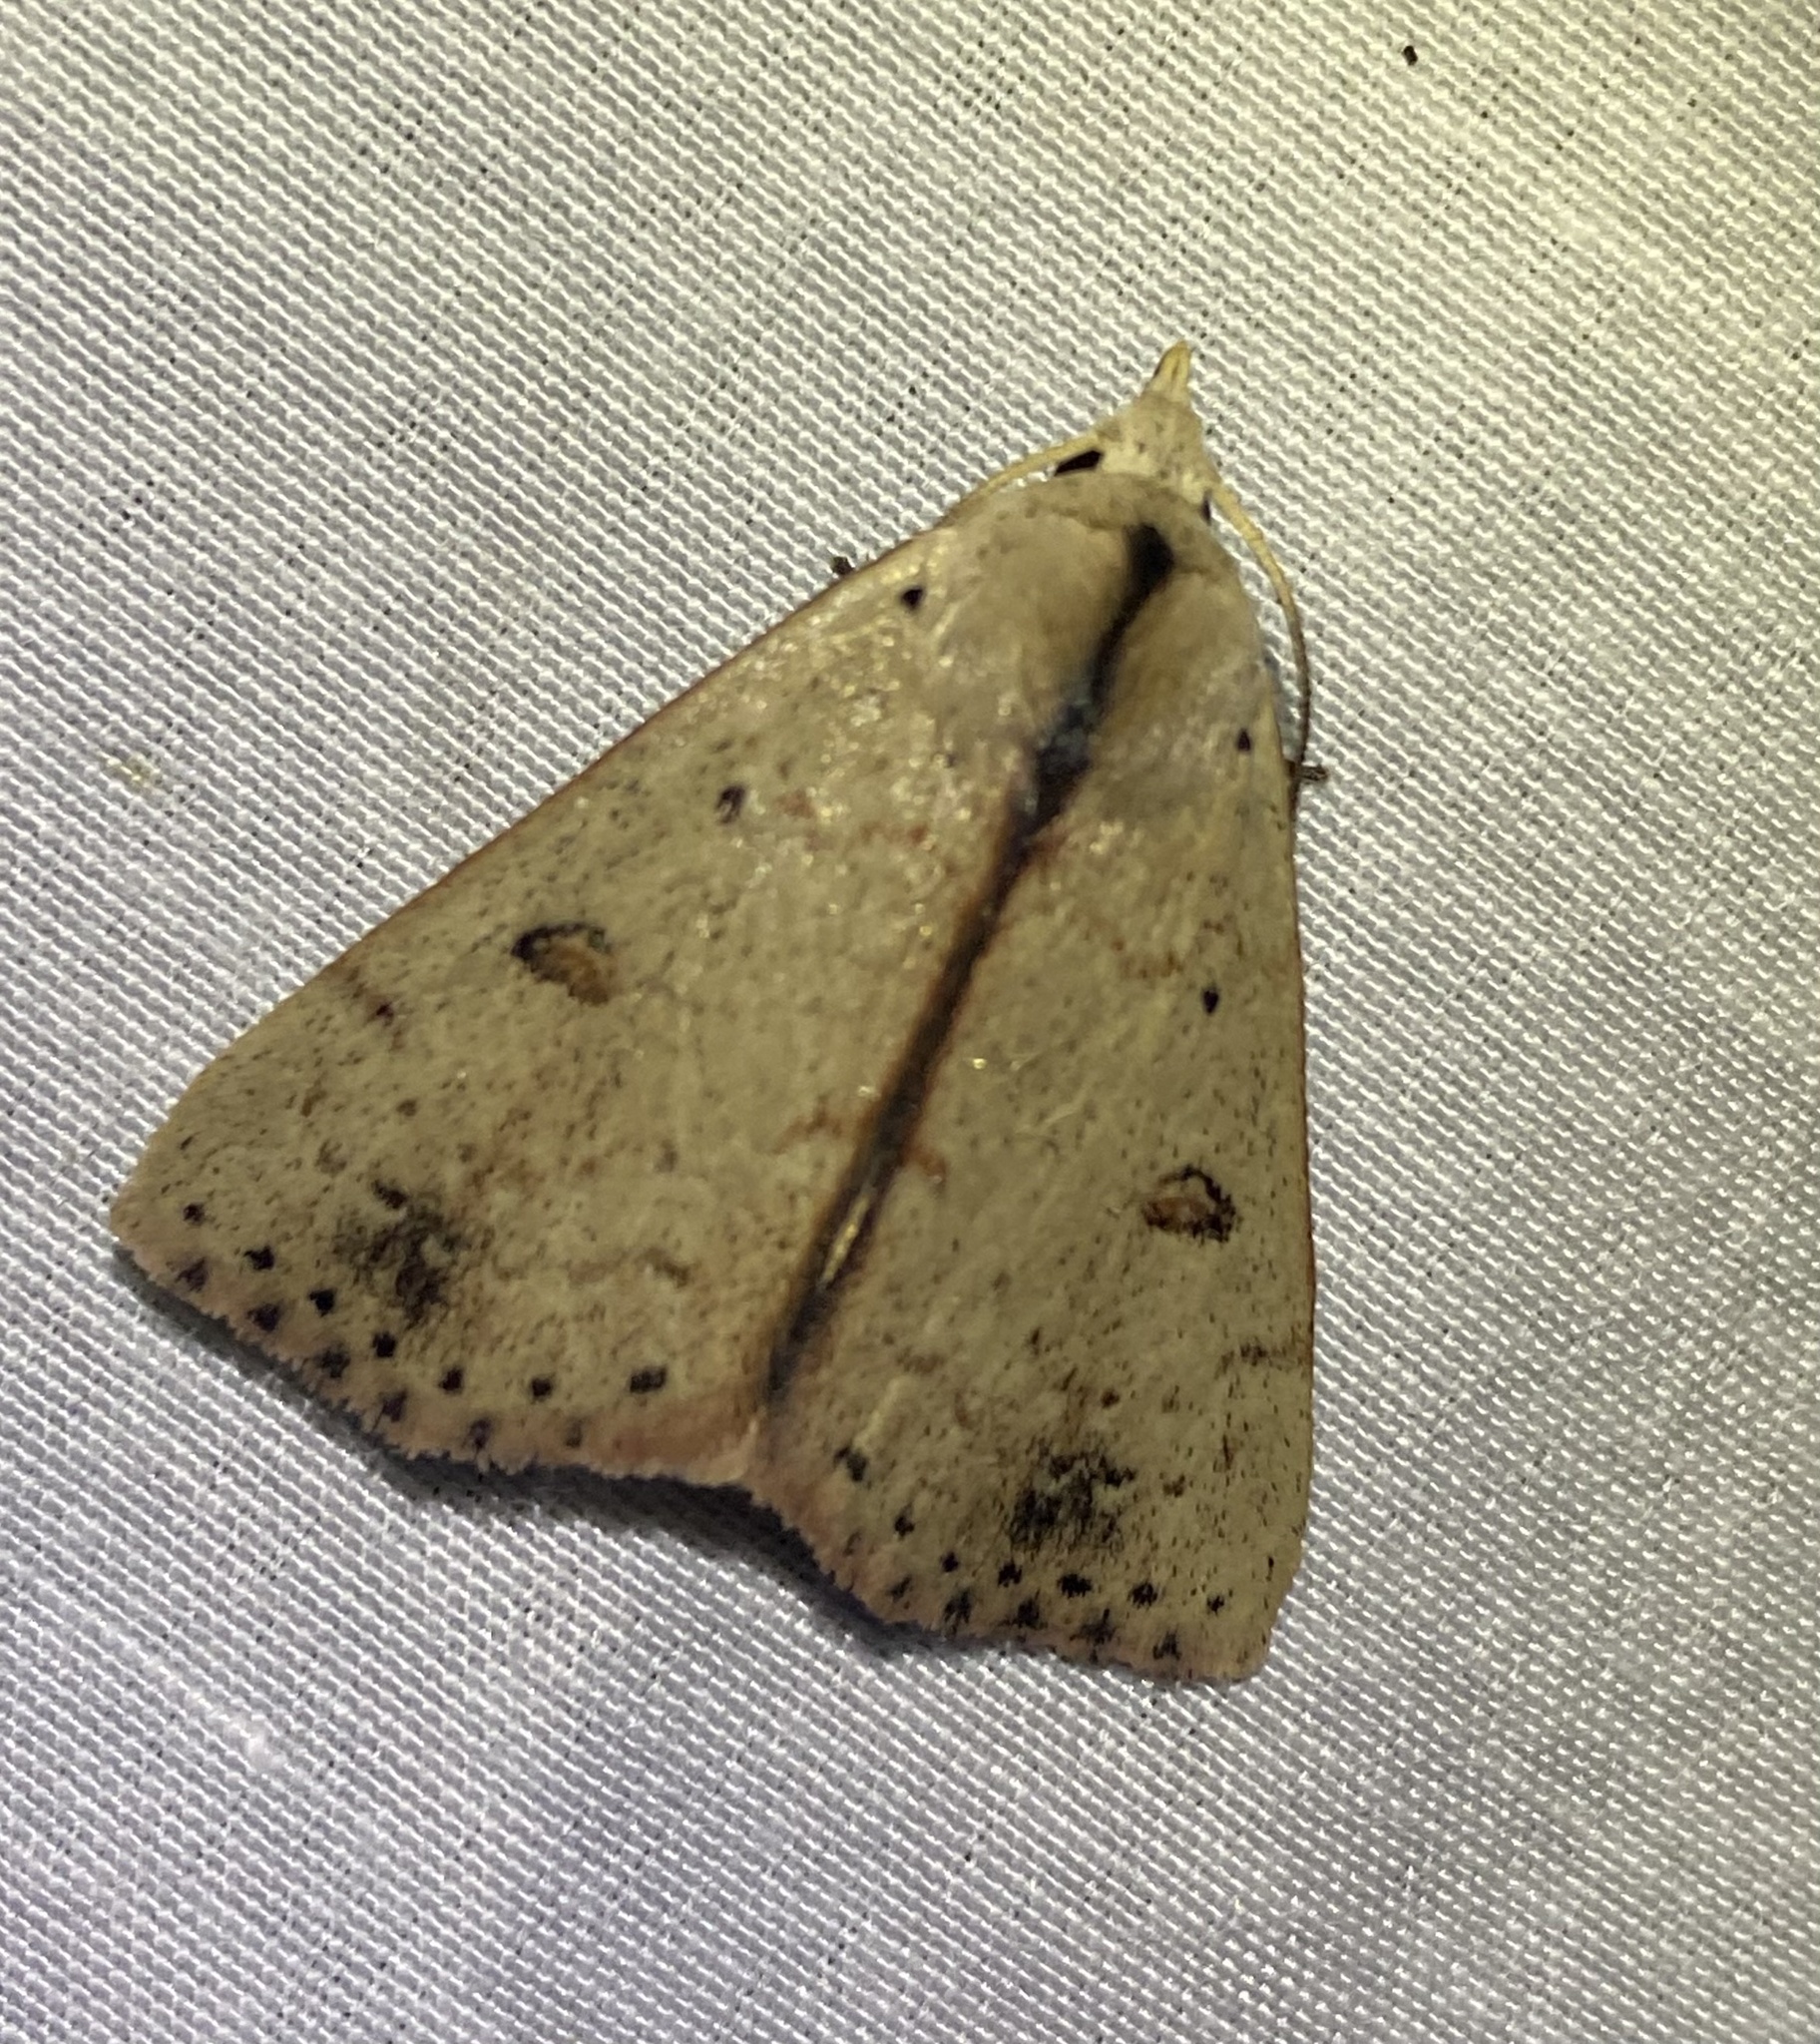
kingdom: Animalia
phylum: Arthropoda
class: Insecta
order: Lepidoptera
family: Erebidae
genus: Scolecocampa
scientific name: Scolecocampa liburna
